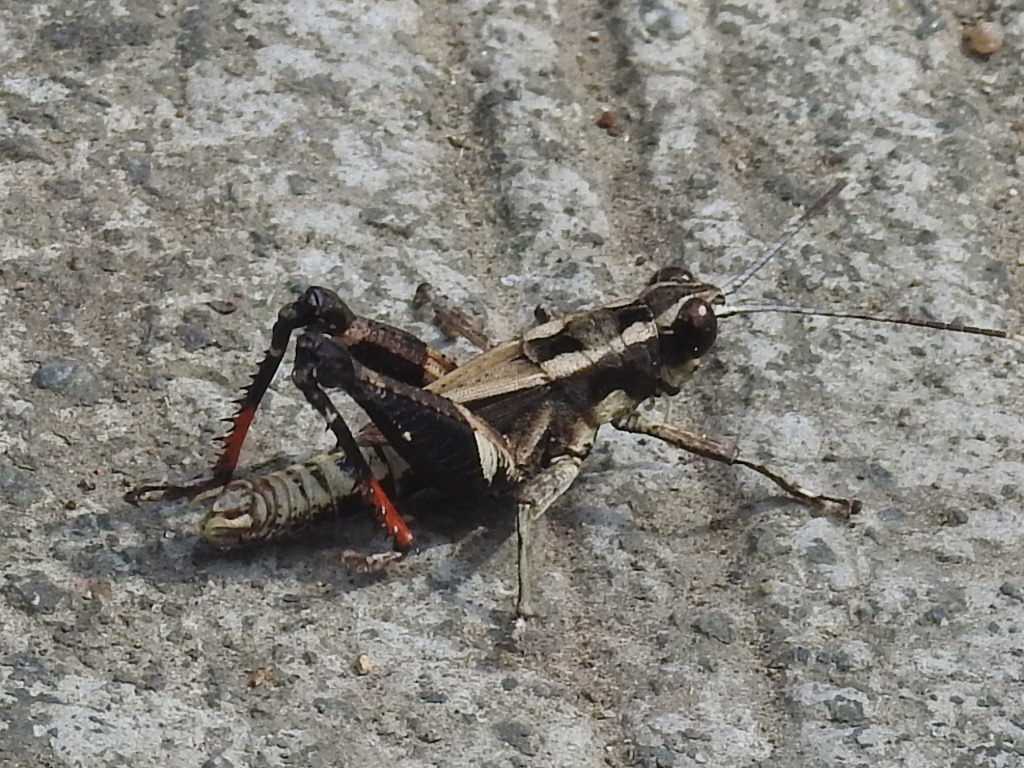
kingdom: Animalia
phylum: Arthropoda
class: Insecta
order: Orthoptera
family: Acrididae
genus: Traulia
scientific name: Traulia ornata
